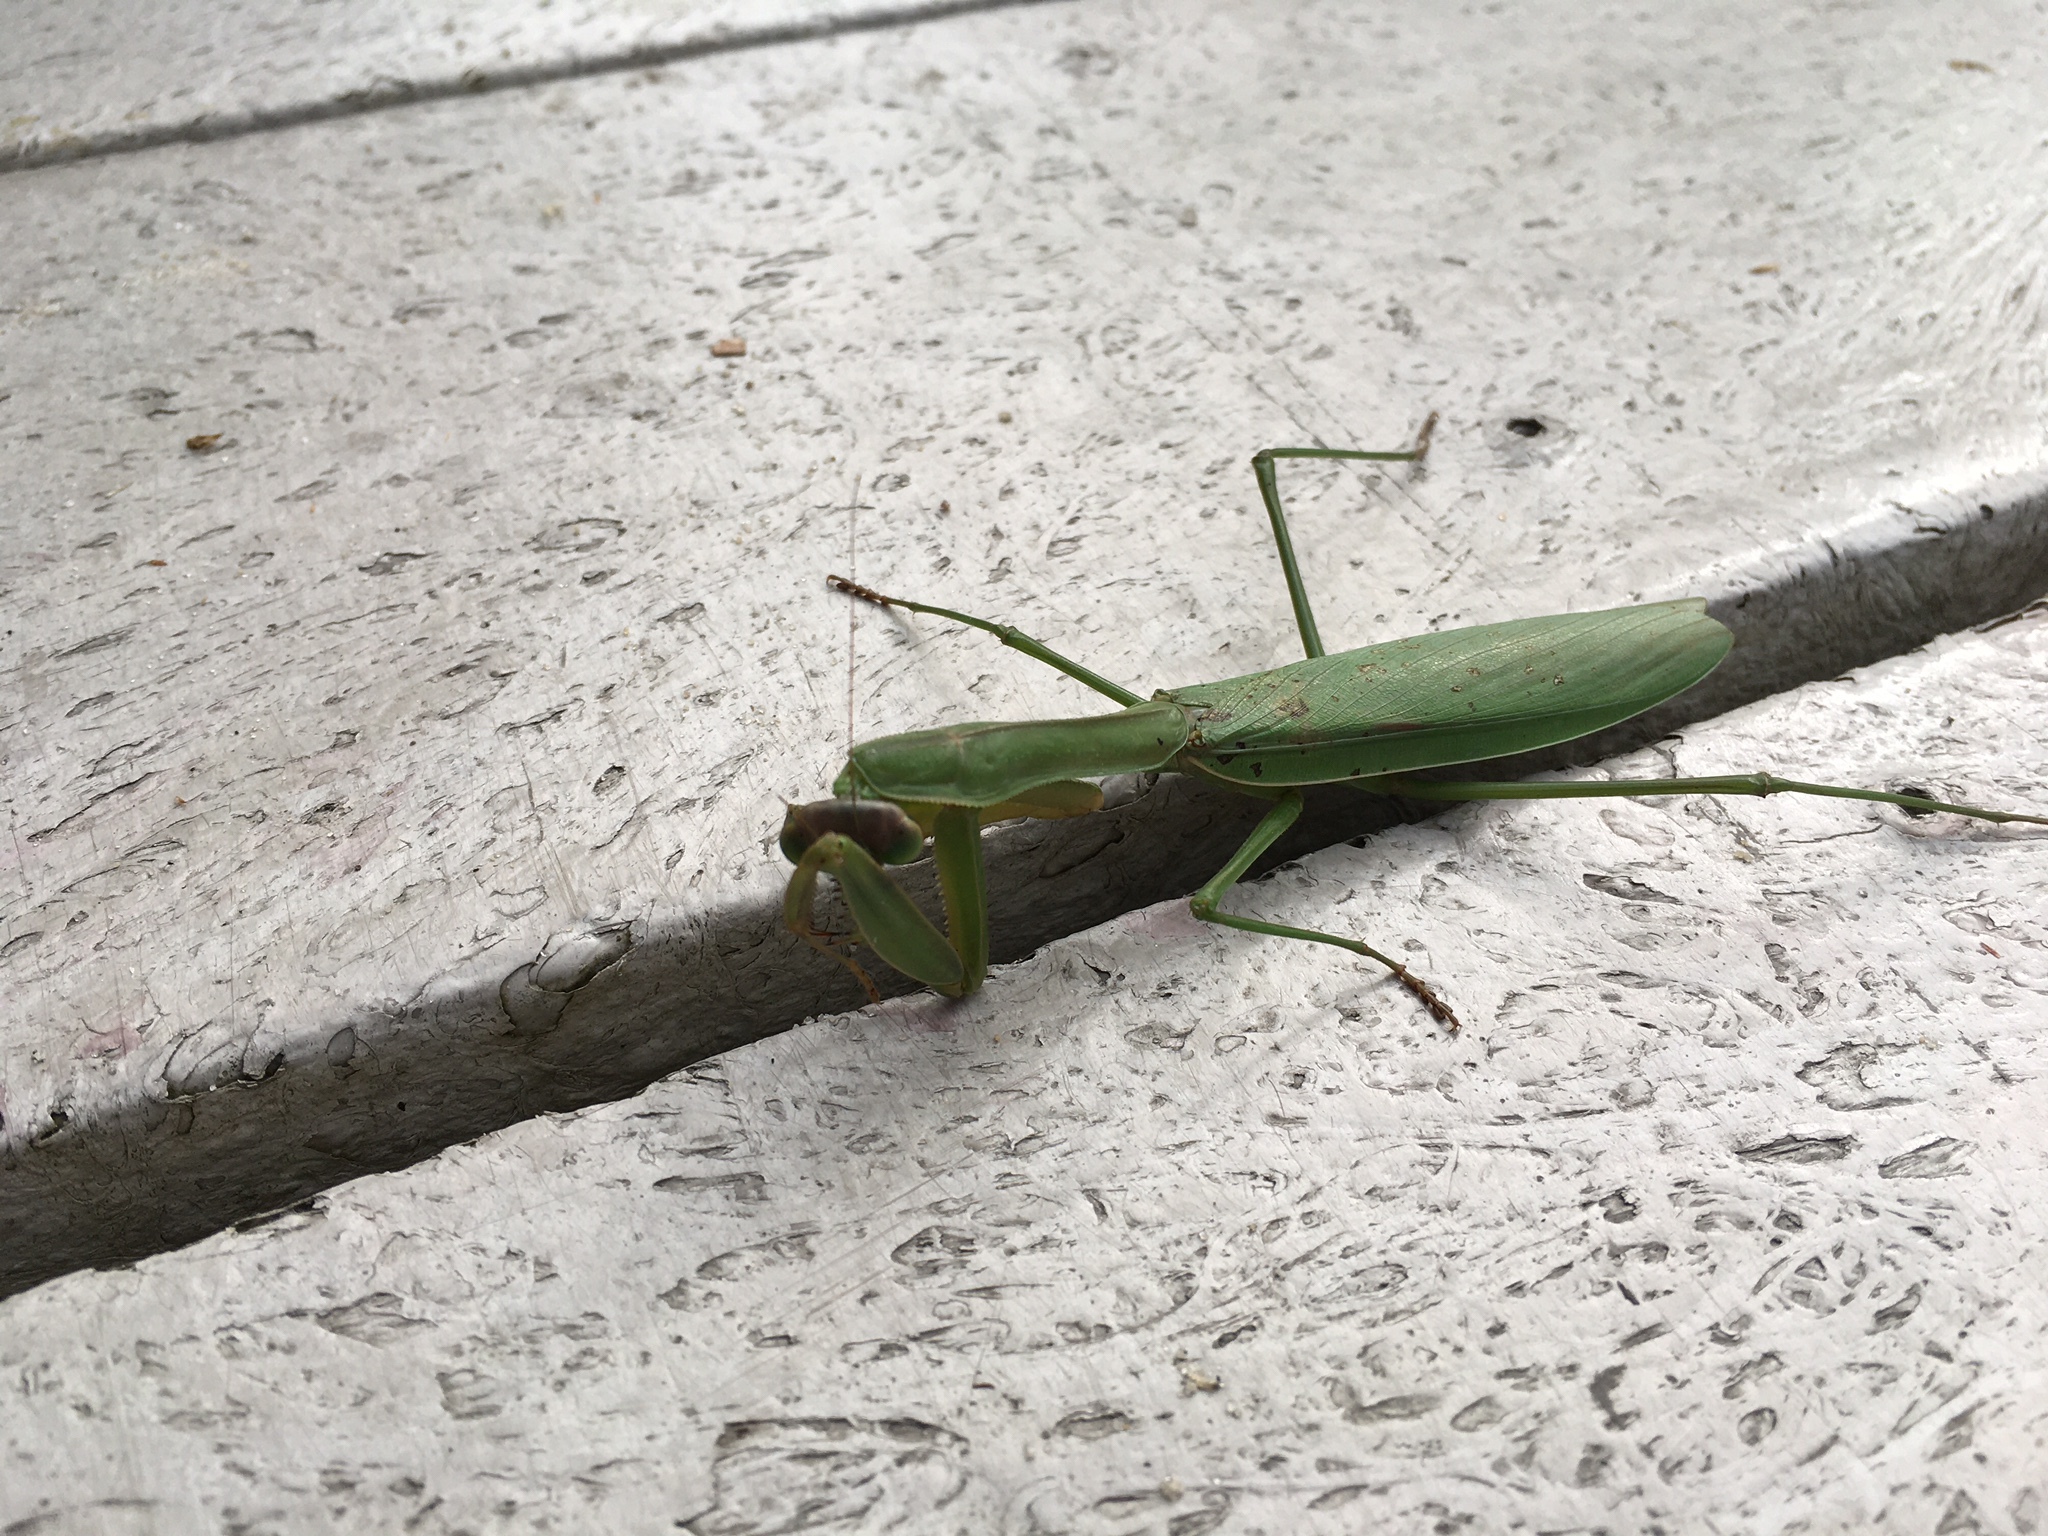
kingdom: Animalia
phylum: Arthropoda
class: Insecta
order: Mantodea
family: Mantidae
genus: Tenodera
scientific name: Tenodera sinensis
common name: Chinese mantis
